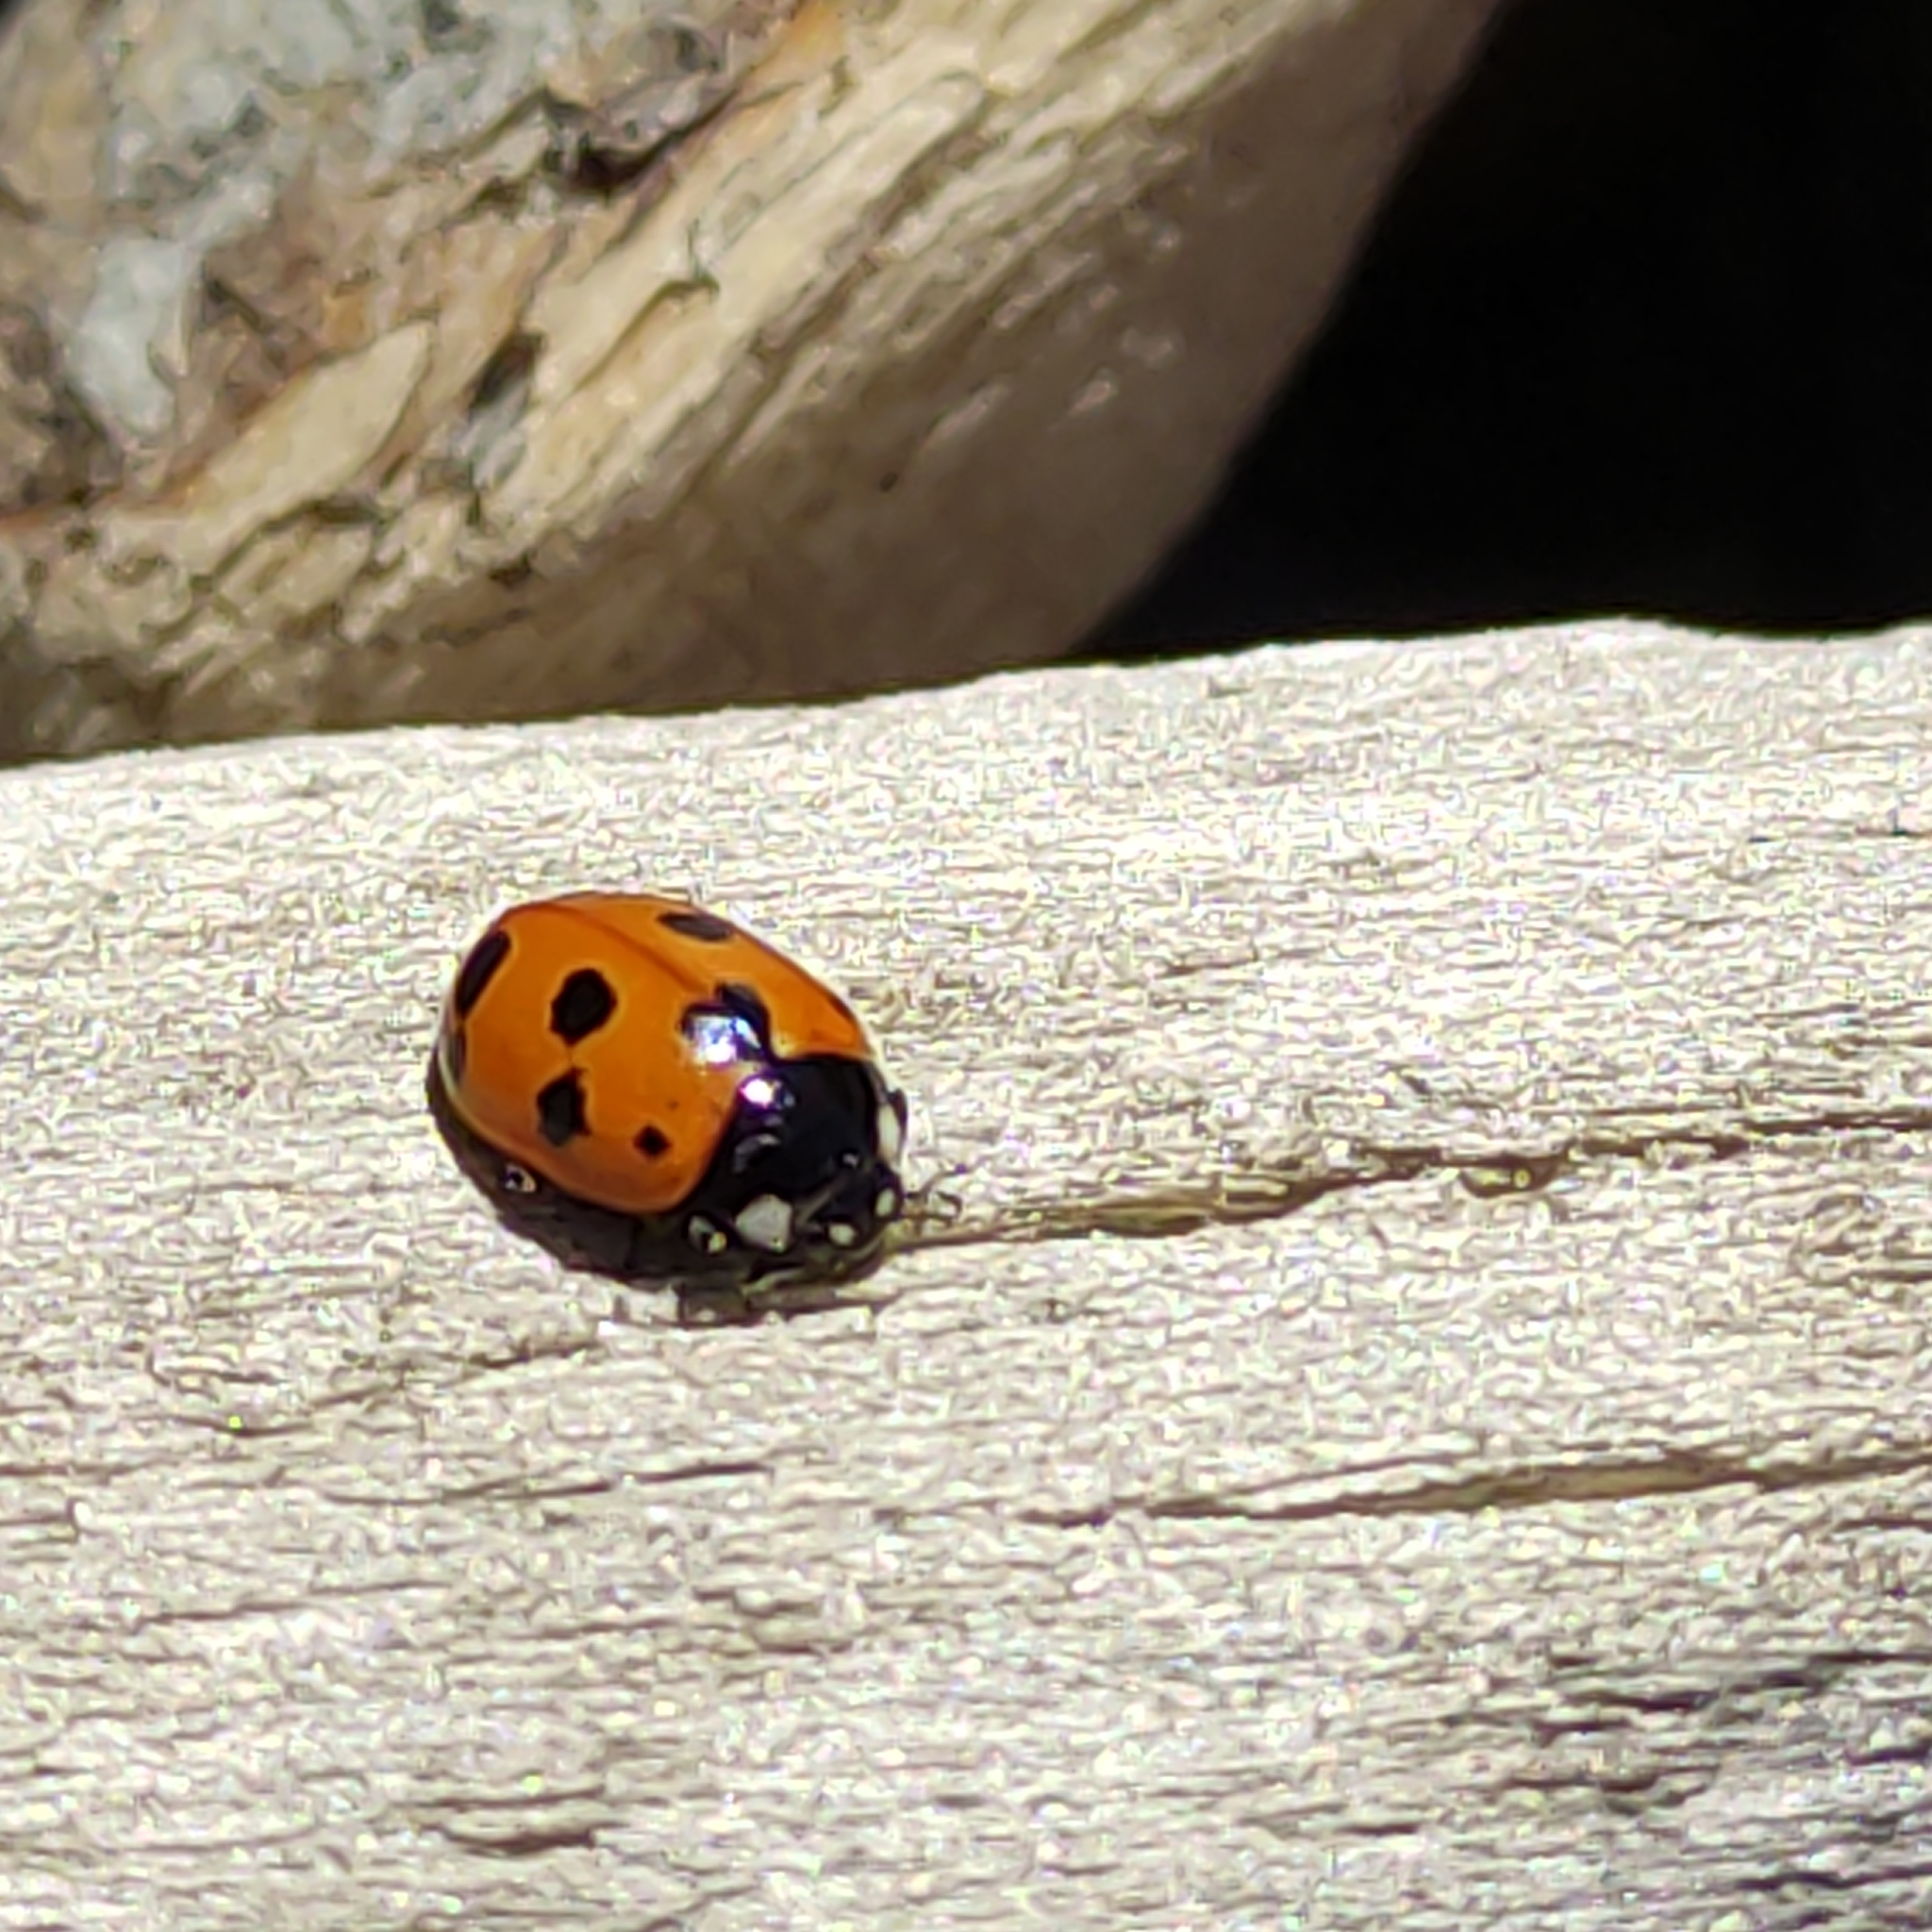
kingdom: Animalia
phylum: Arthropoda
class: Insecta
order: Coleoptera
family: Coccinellidae
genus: Coccinella
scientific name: Coccinella undecimpunctata
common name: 11-spot ladybird
